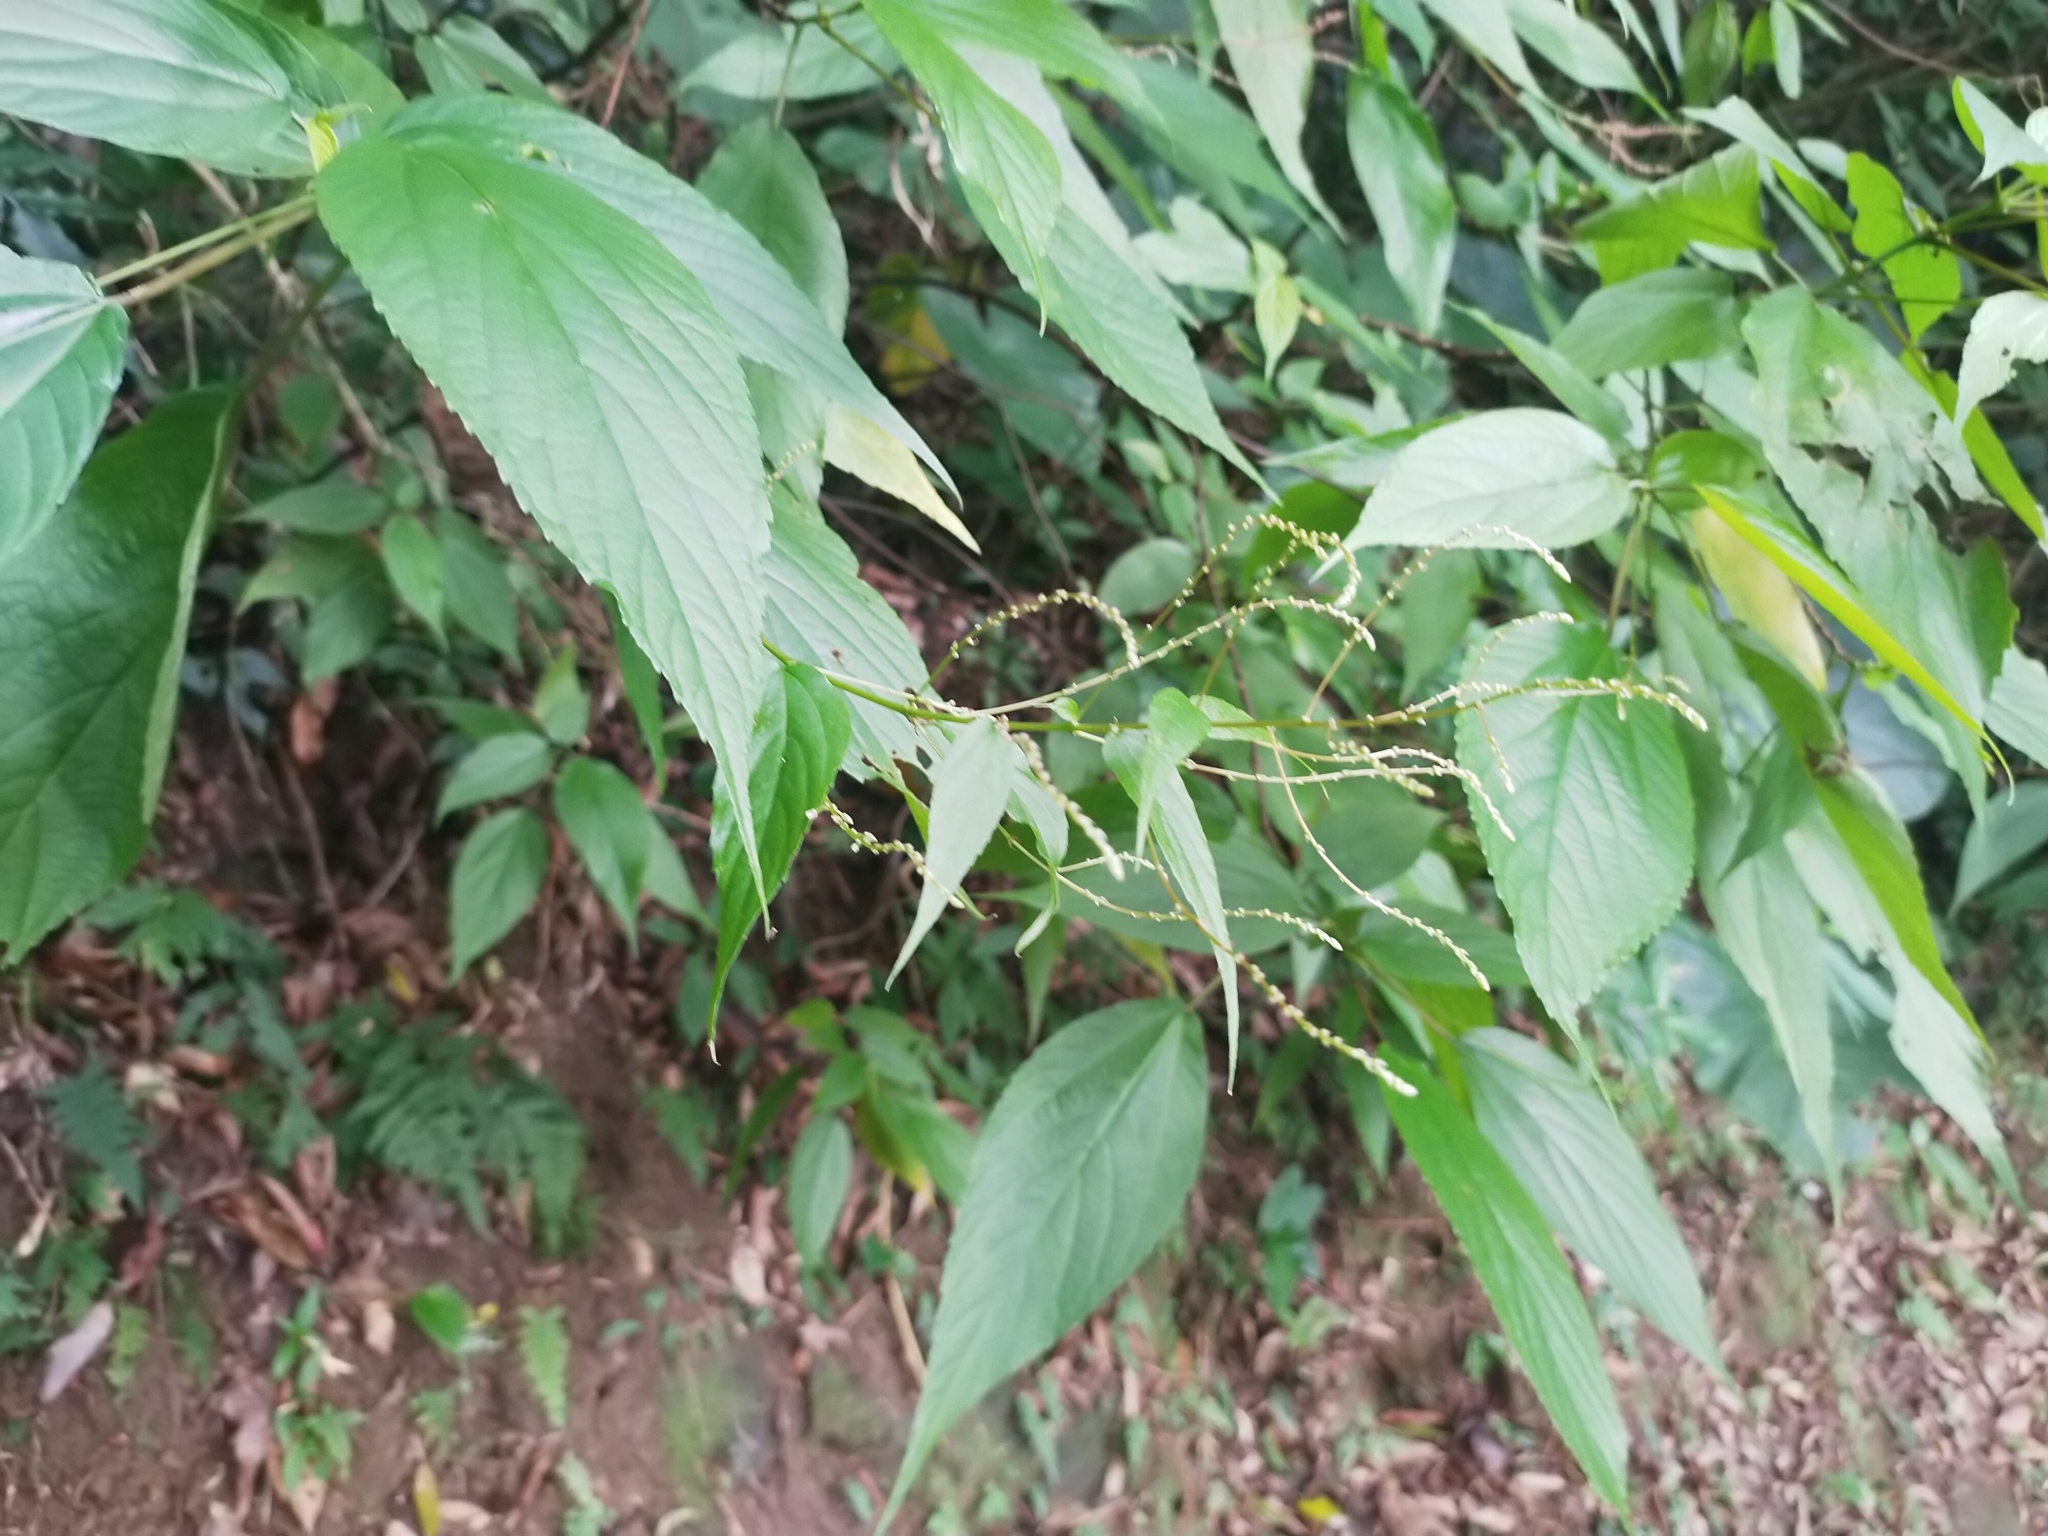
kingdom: Plantae
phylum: Tracheophyta
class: Magnoliopsida
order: Rosales
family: Urticaceae
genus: Boehmeria
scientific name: Boehmeria zollingeriana
